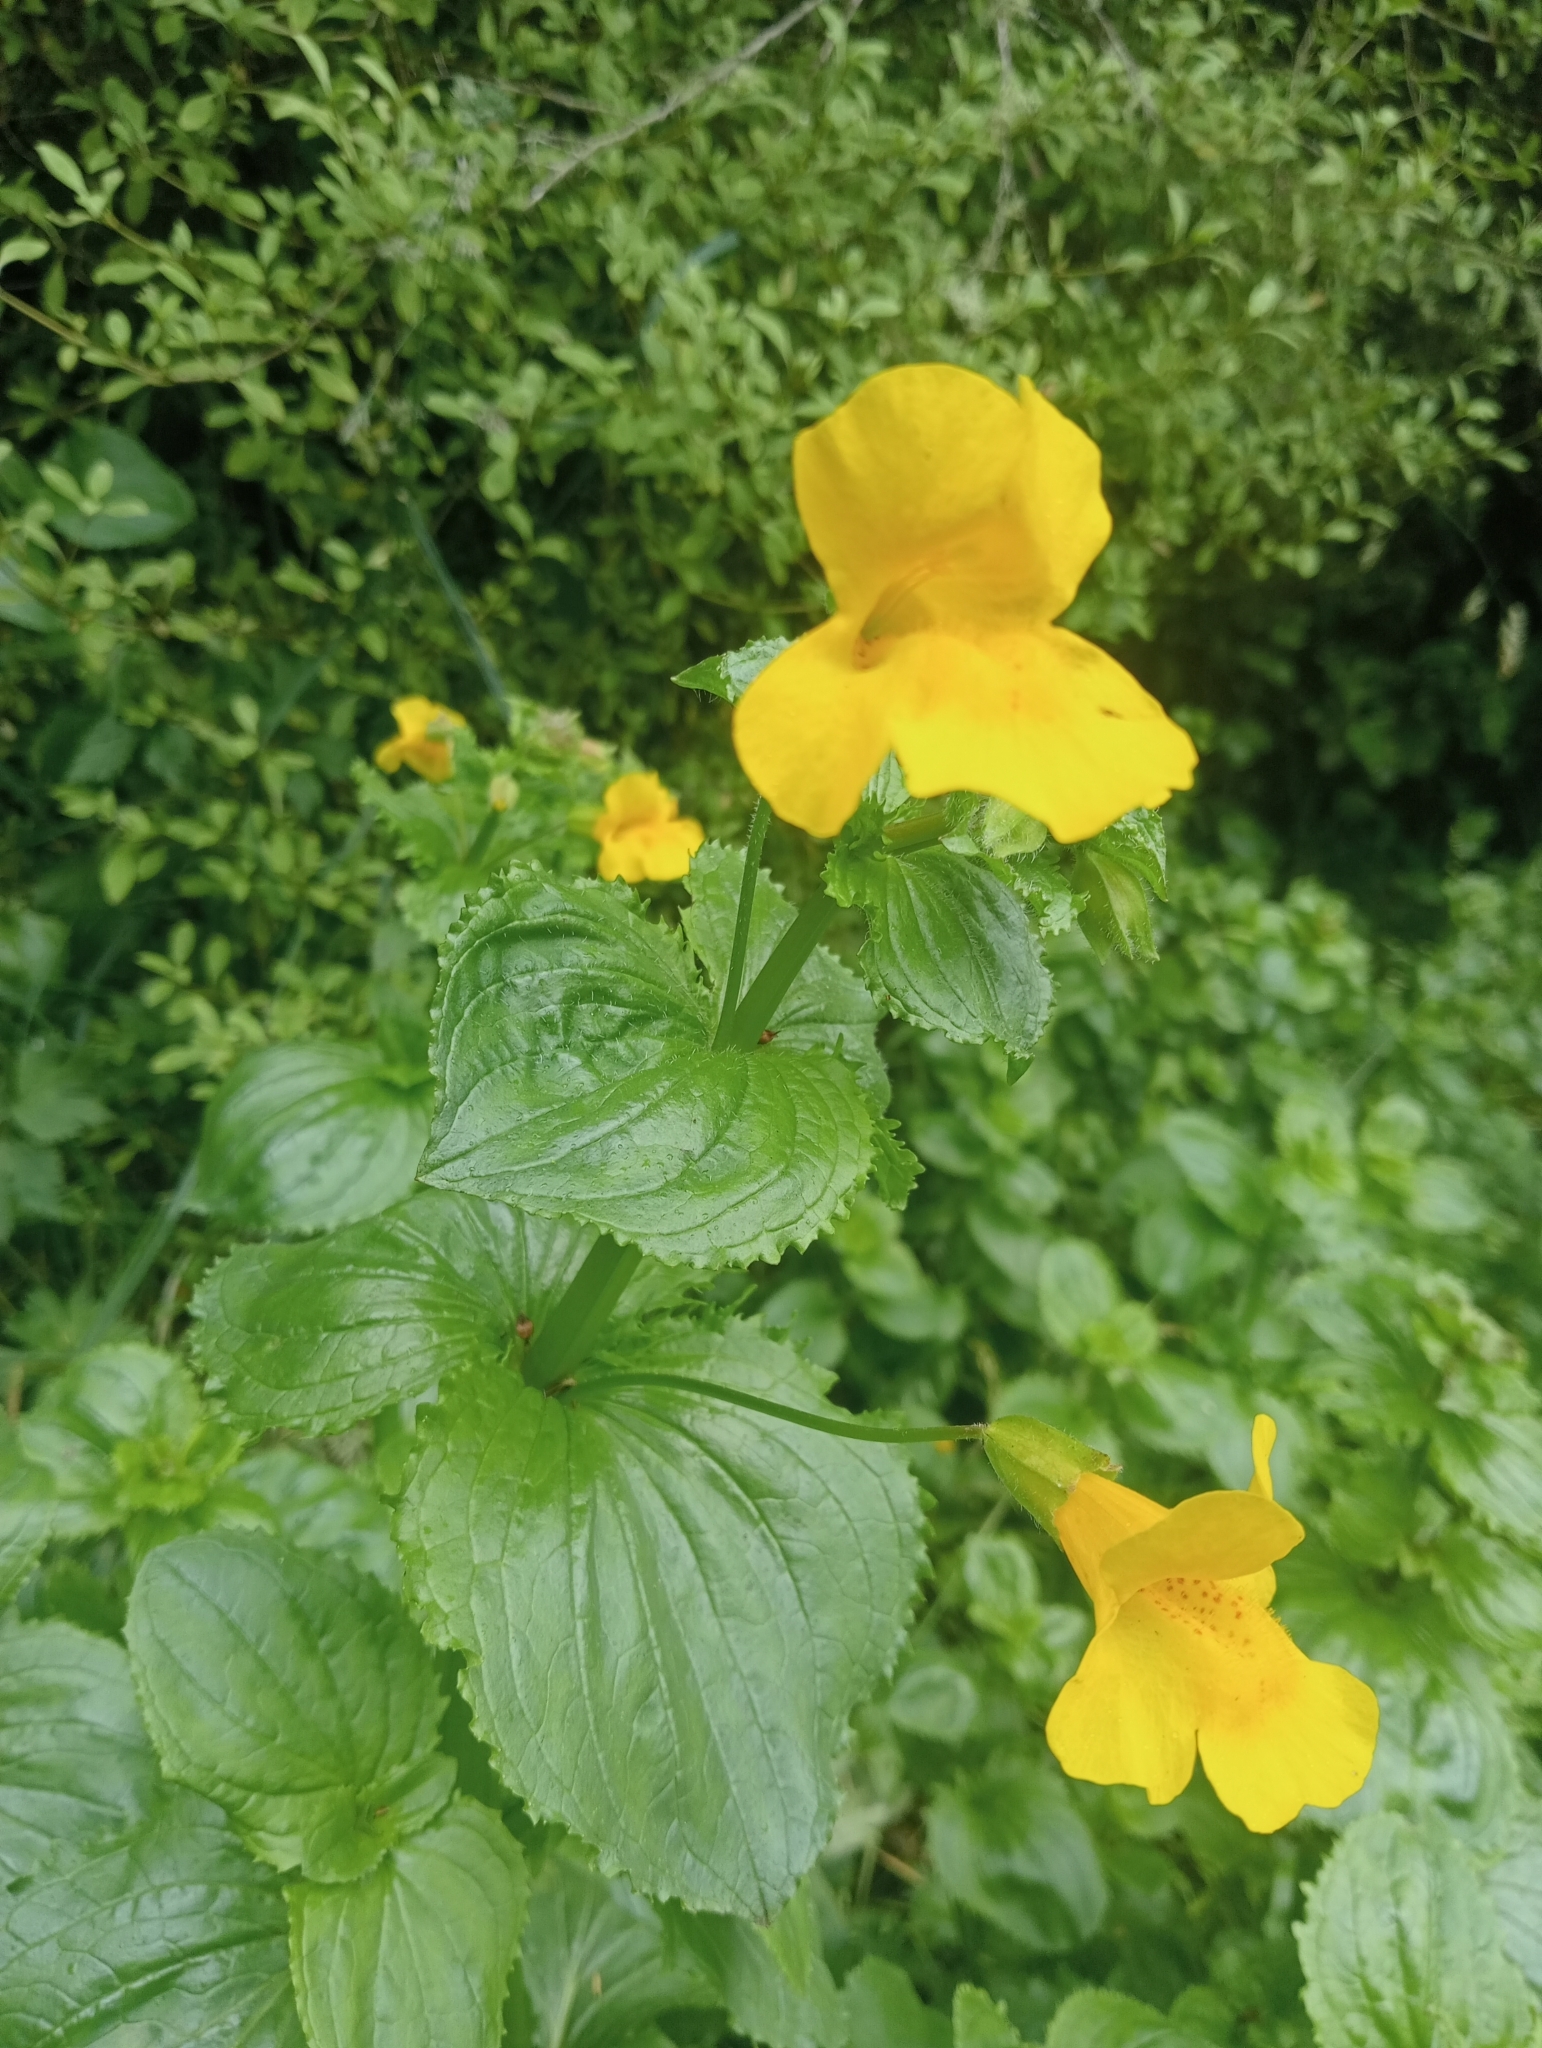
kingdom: Plantae
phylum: Tracheophyta
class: Magnoliopsida
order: Lamiales
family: Phrymaceae
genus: Erythranthe
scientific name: Erythranthe guttata
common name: Monkeyflower
